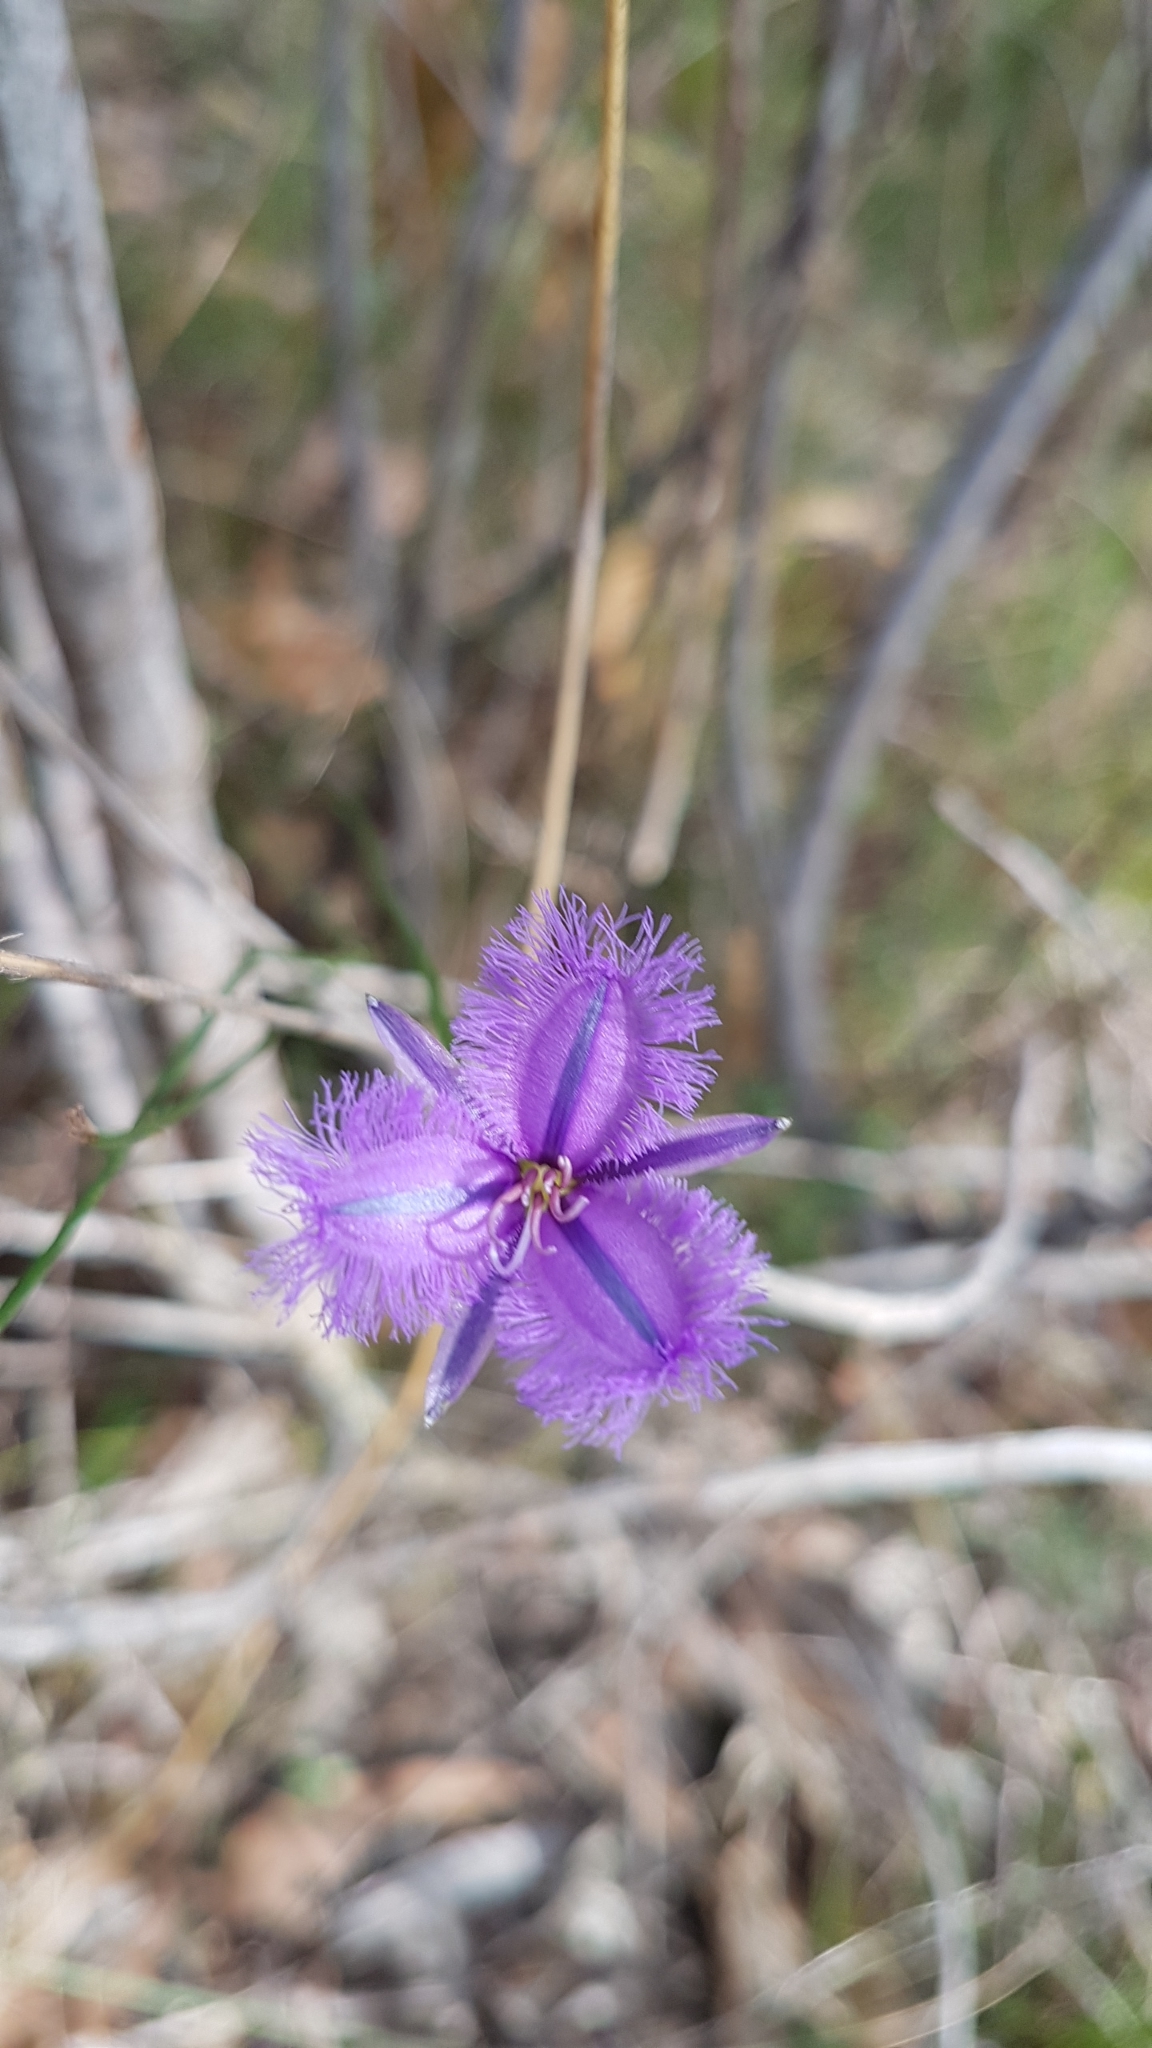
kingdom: Plantae
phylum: Tracheophyta
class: Liliopsida
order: Asparagales
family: Asparagaceae
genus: Thysanotus
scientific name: Thysanotus patersonii
